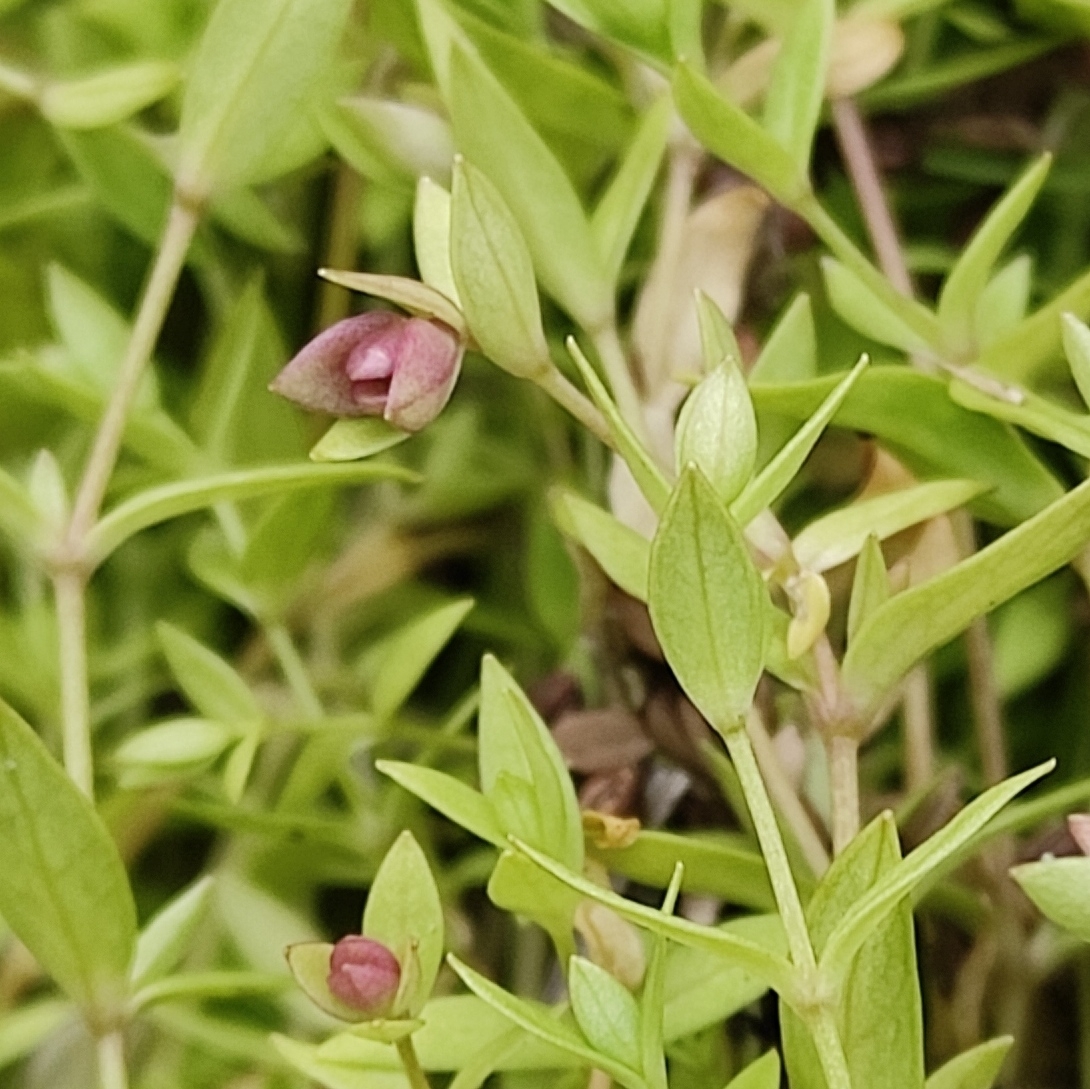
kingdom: Plantae
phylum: Tracheophyta
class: Magnoliopsida
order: Gentianales
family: Gentianaceae
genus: Swertia
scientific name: Swertia dichotoma
